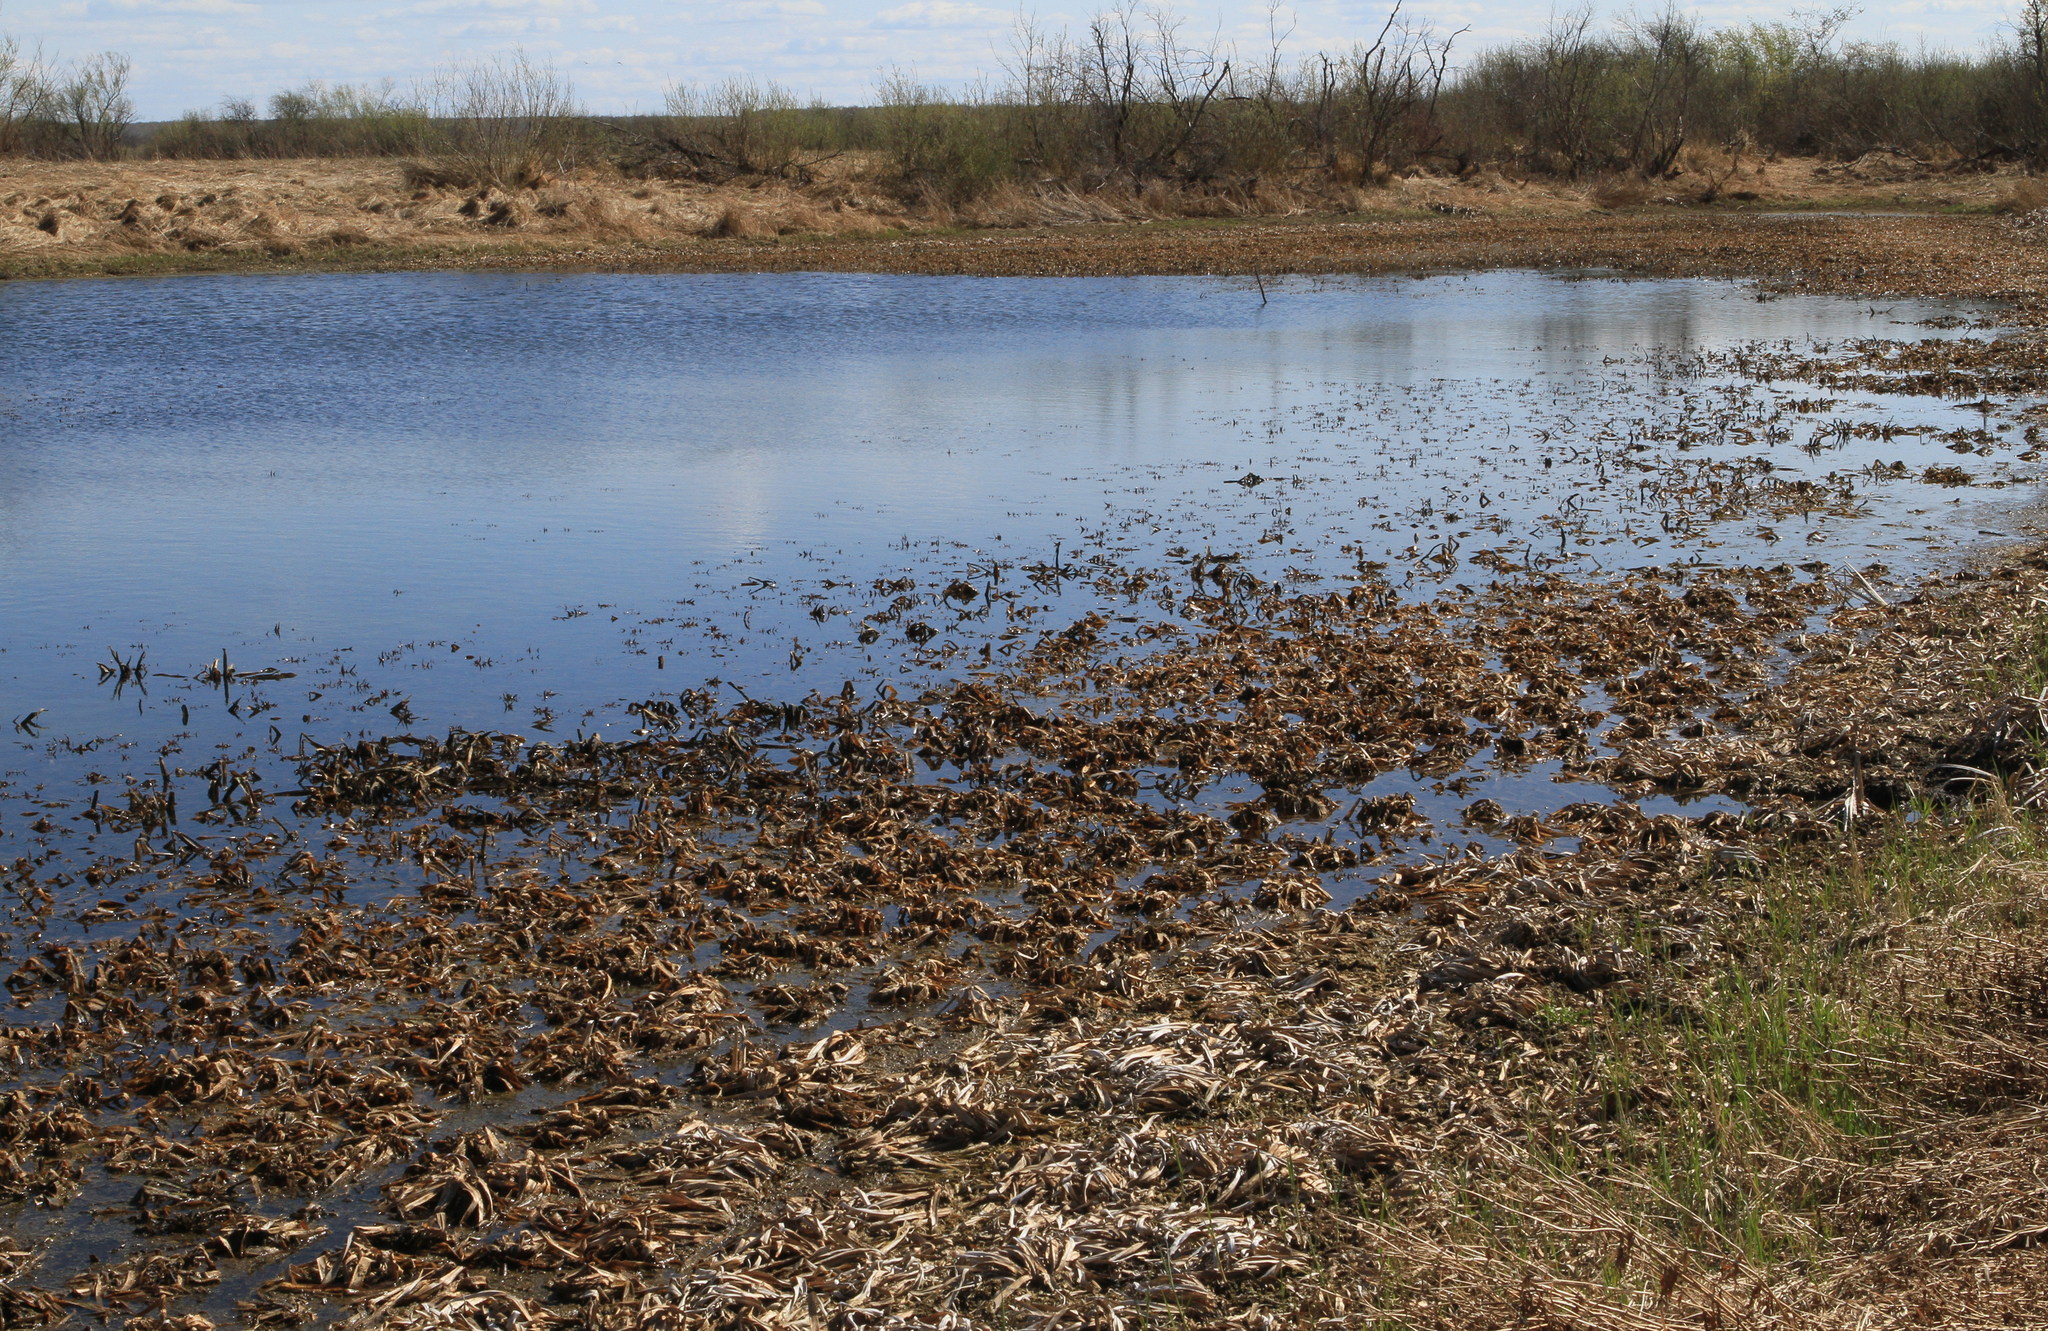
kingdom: Plantae
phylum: Tracheophyta
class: Liliopsida
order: Alismatales
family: Hydrocharitaceae
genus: Stratiotes
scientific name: Stratiotes aloides
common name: Water-soldier
